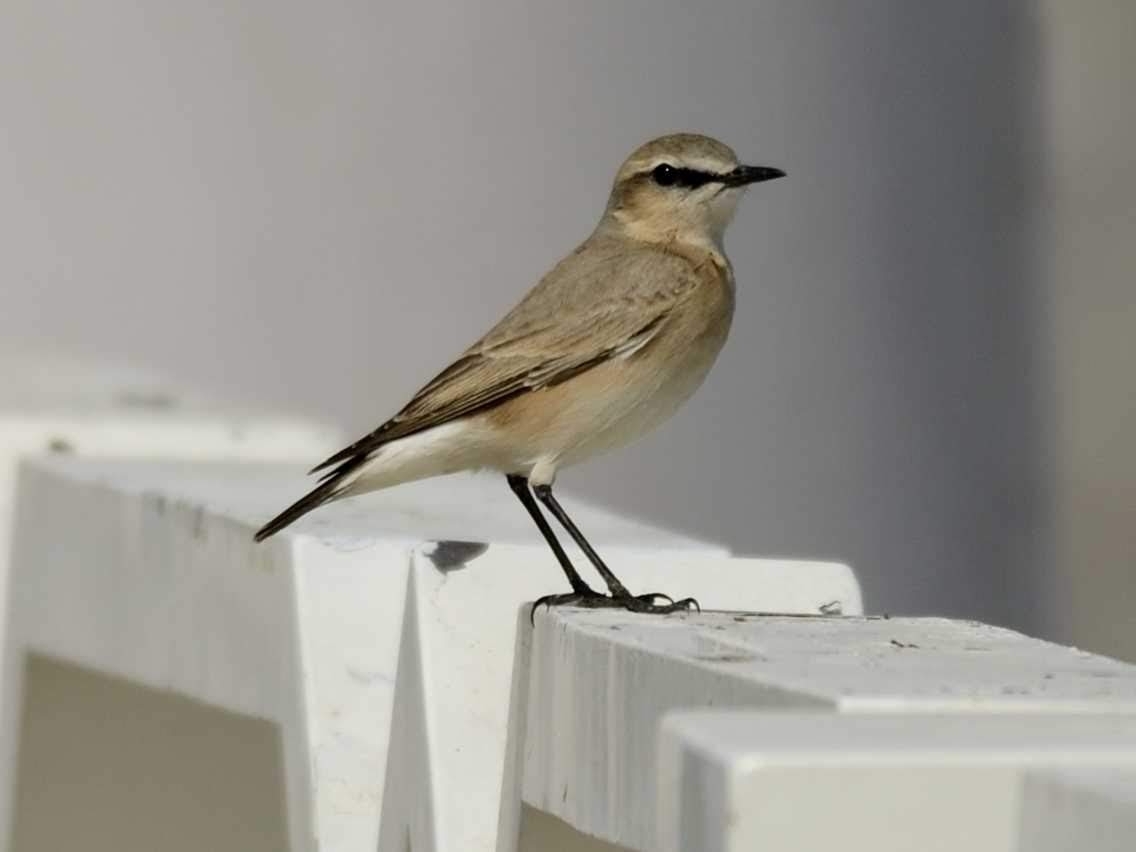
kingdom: Animalia
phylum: Chordata
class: Aves
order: Passeriformes
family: Muscicapidae
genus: Oenanthe
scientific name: Oenanthe isabellina
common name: Isabelline wheatear
